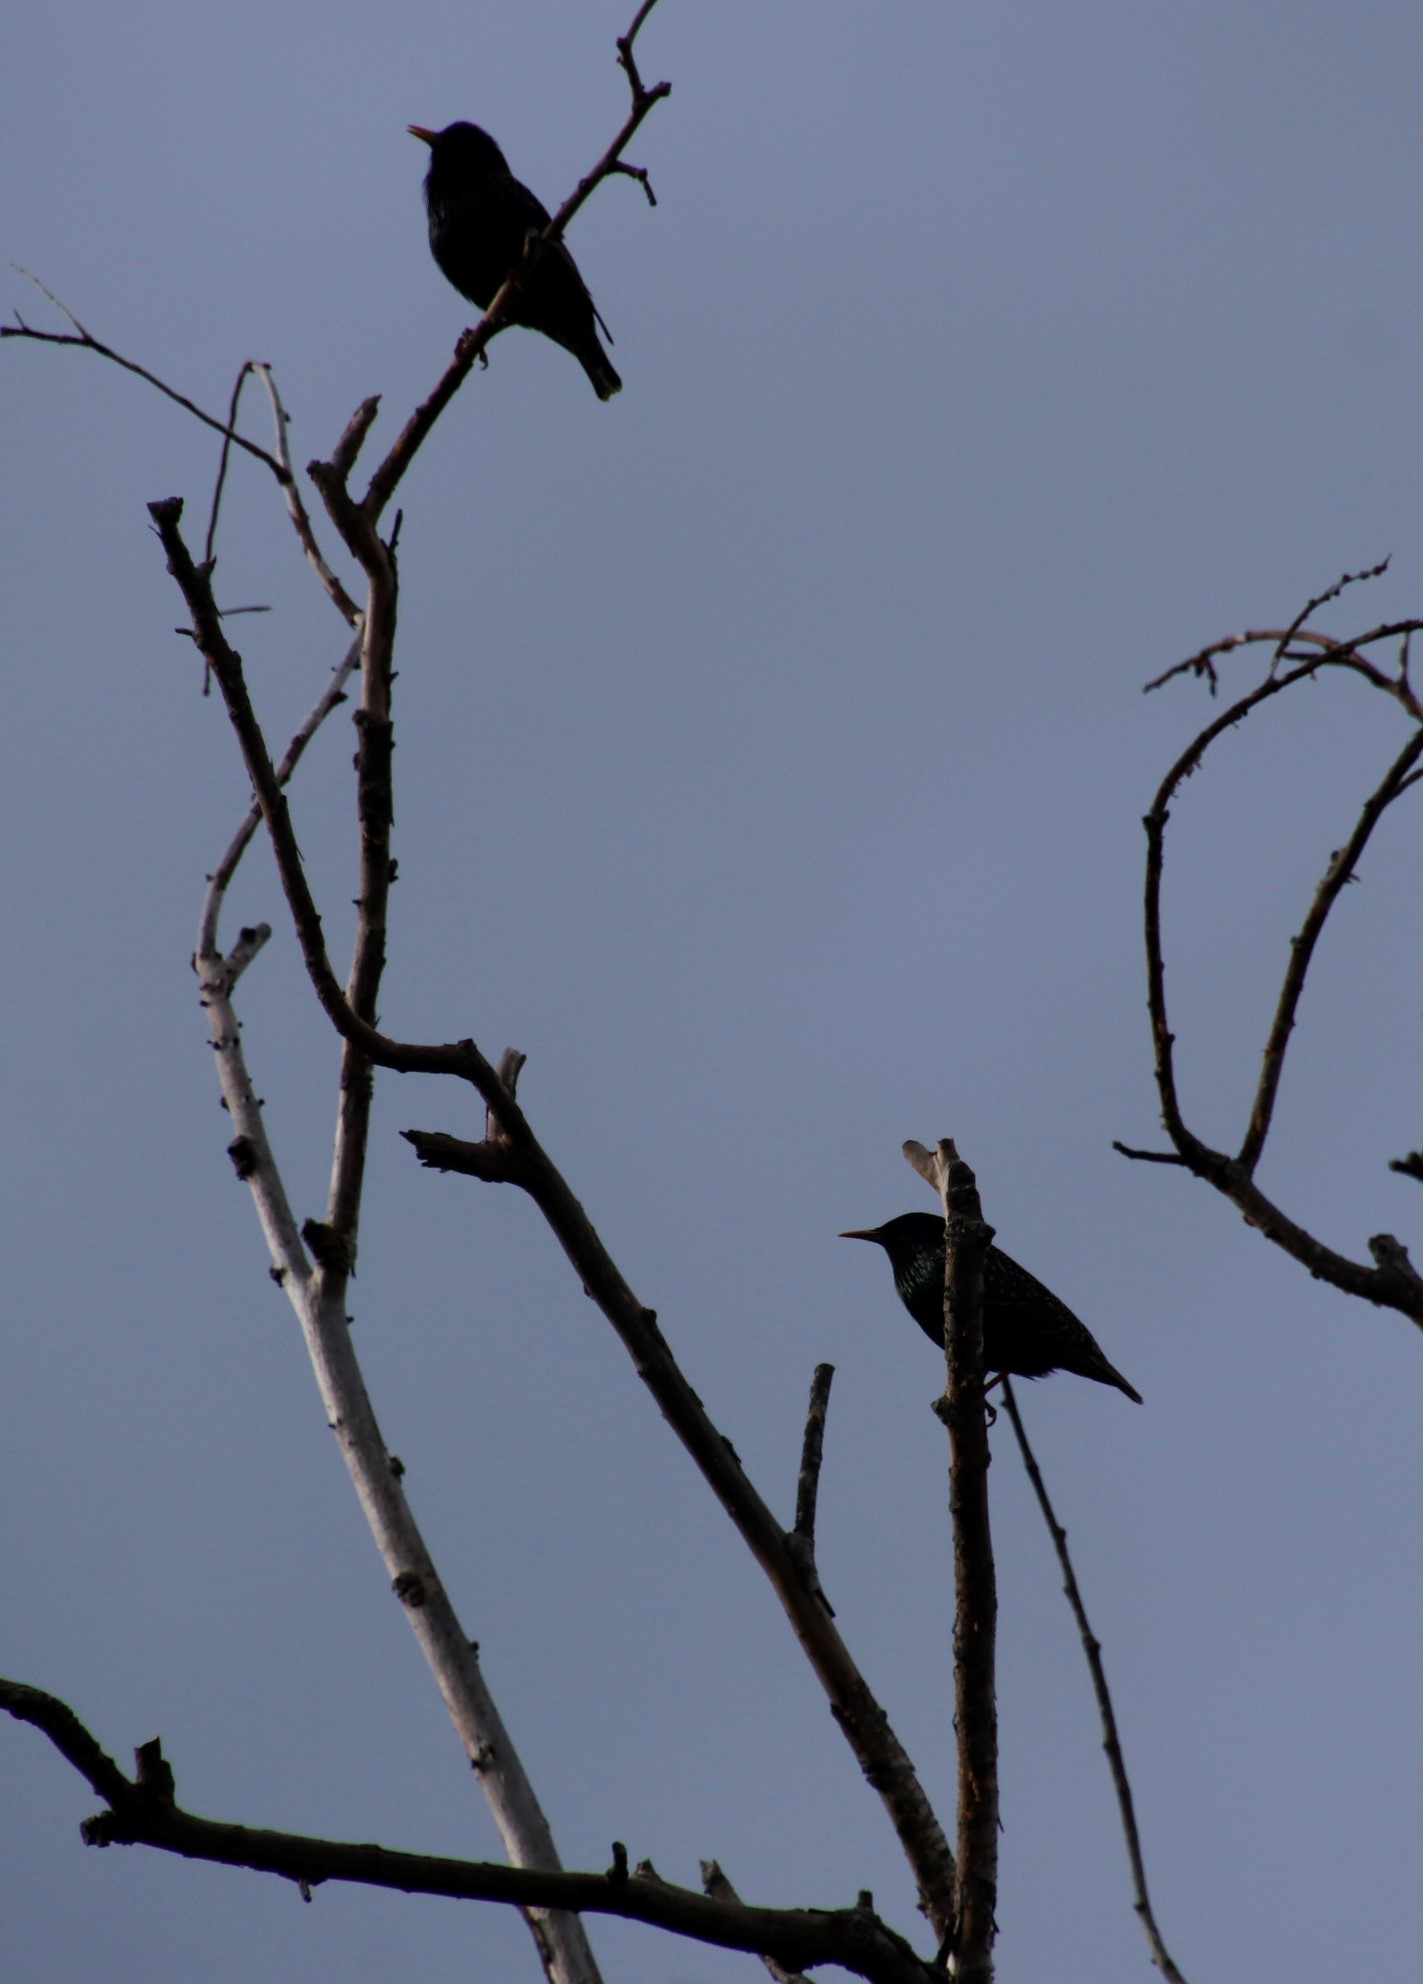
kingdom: Animalia
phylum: Chordata
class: Aves
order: Passeriformes
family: Sturnidae
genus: Sturnus
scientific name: Sturnus vulgaris
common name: Common starling
